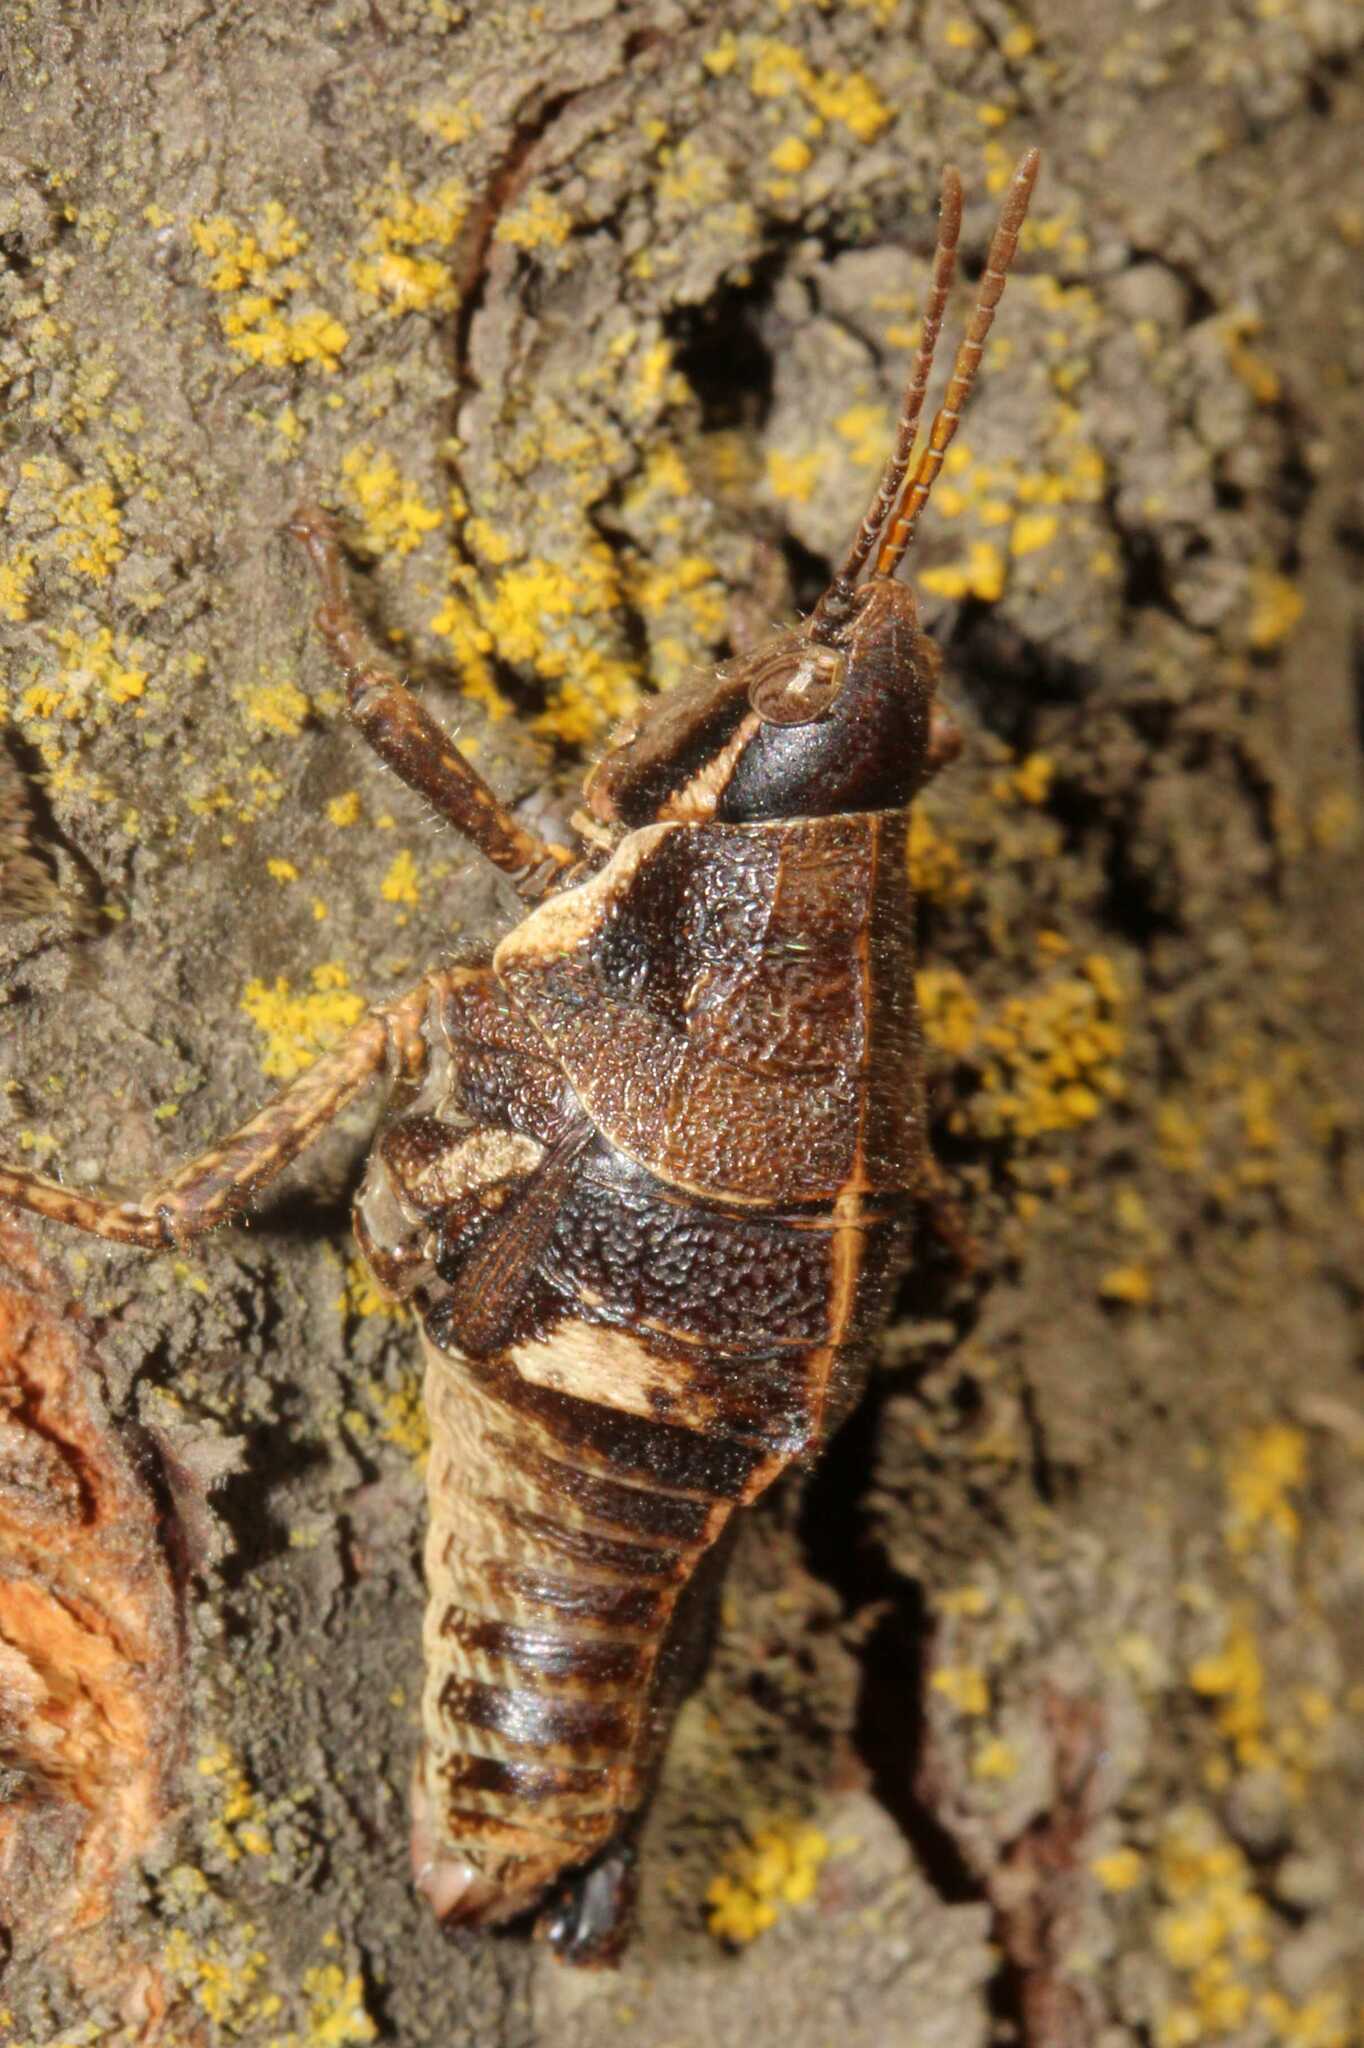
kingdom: Animalia
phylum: Arthropoda
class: Insecta
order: Orthoptera
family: Pyrgomorphidae
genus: Sphenarium
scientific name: Sphenarium purpurascens
